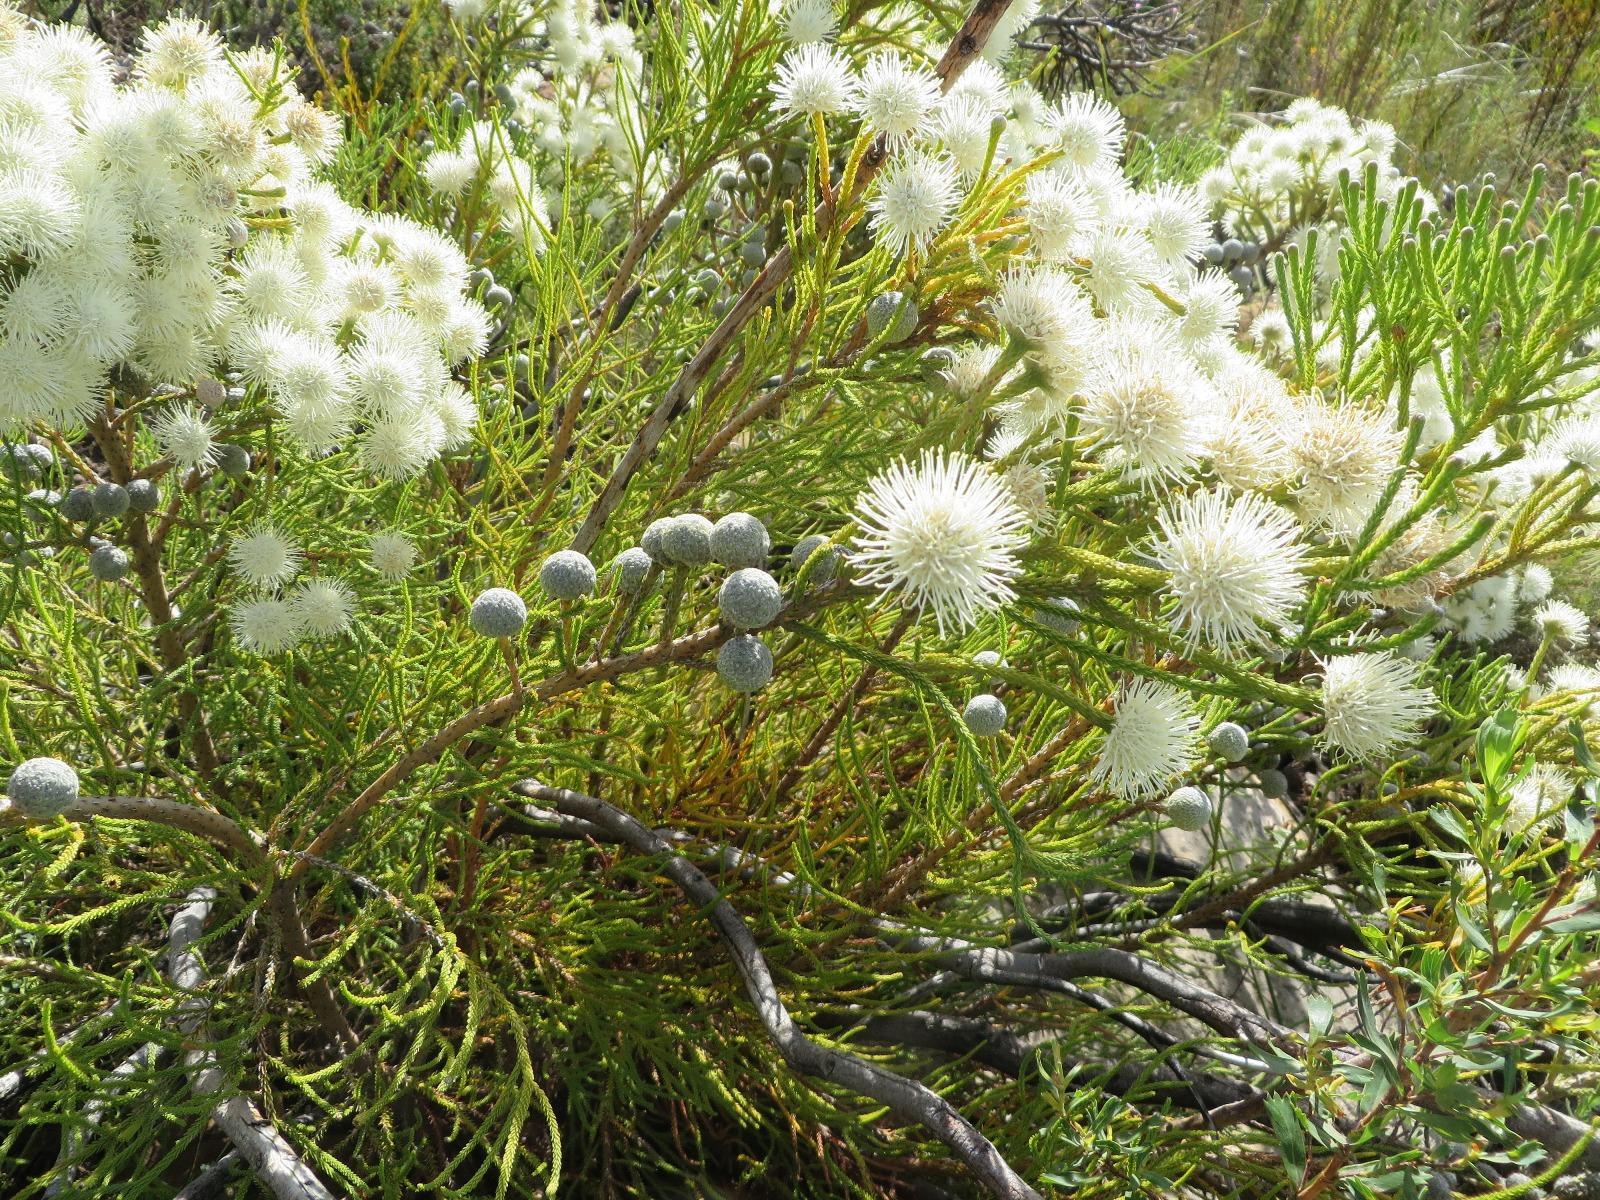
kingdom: Plantae
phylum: Tracheophyta
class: Magnoliopsida
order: Bruniales
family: Bruniaceae
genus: Brunia
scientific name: Brunia noduliflora
